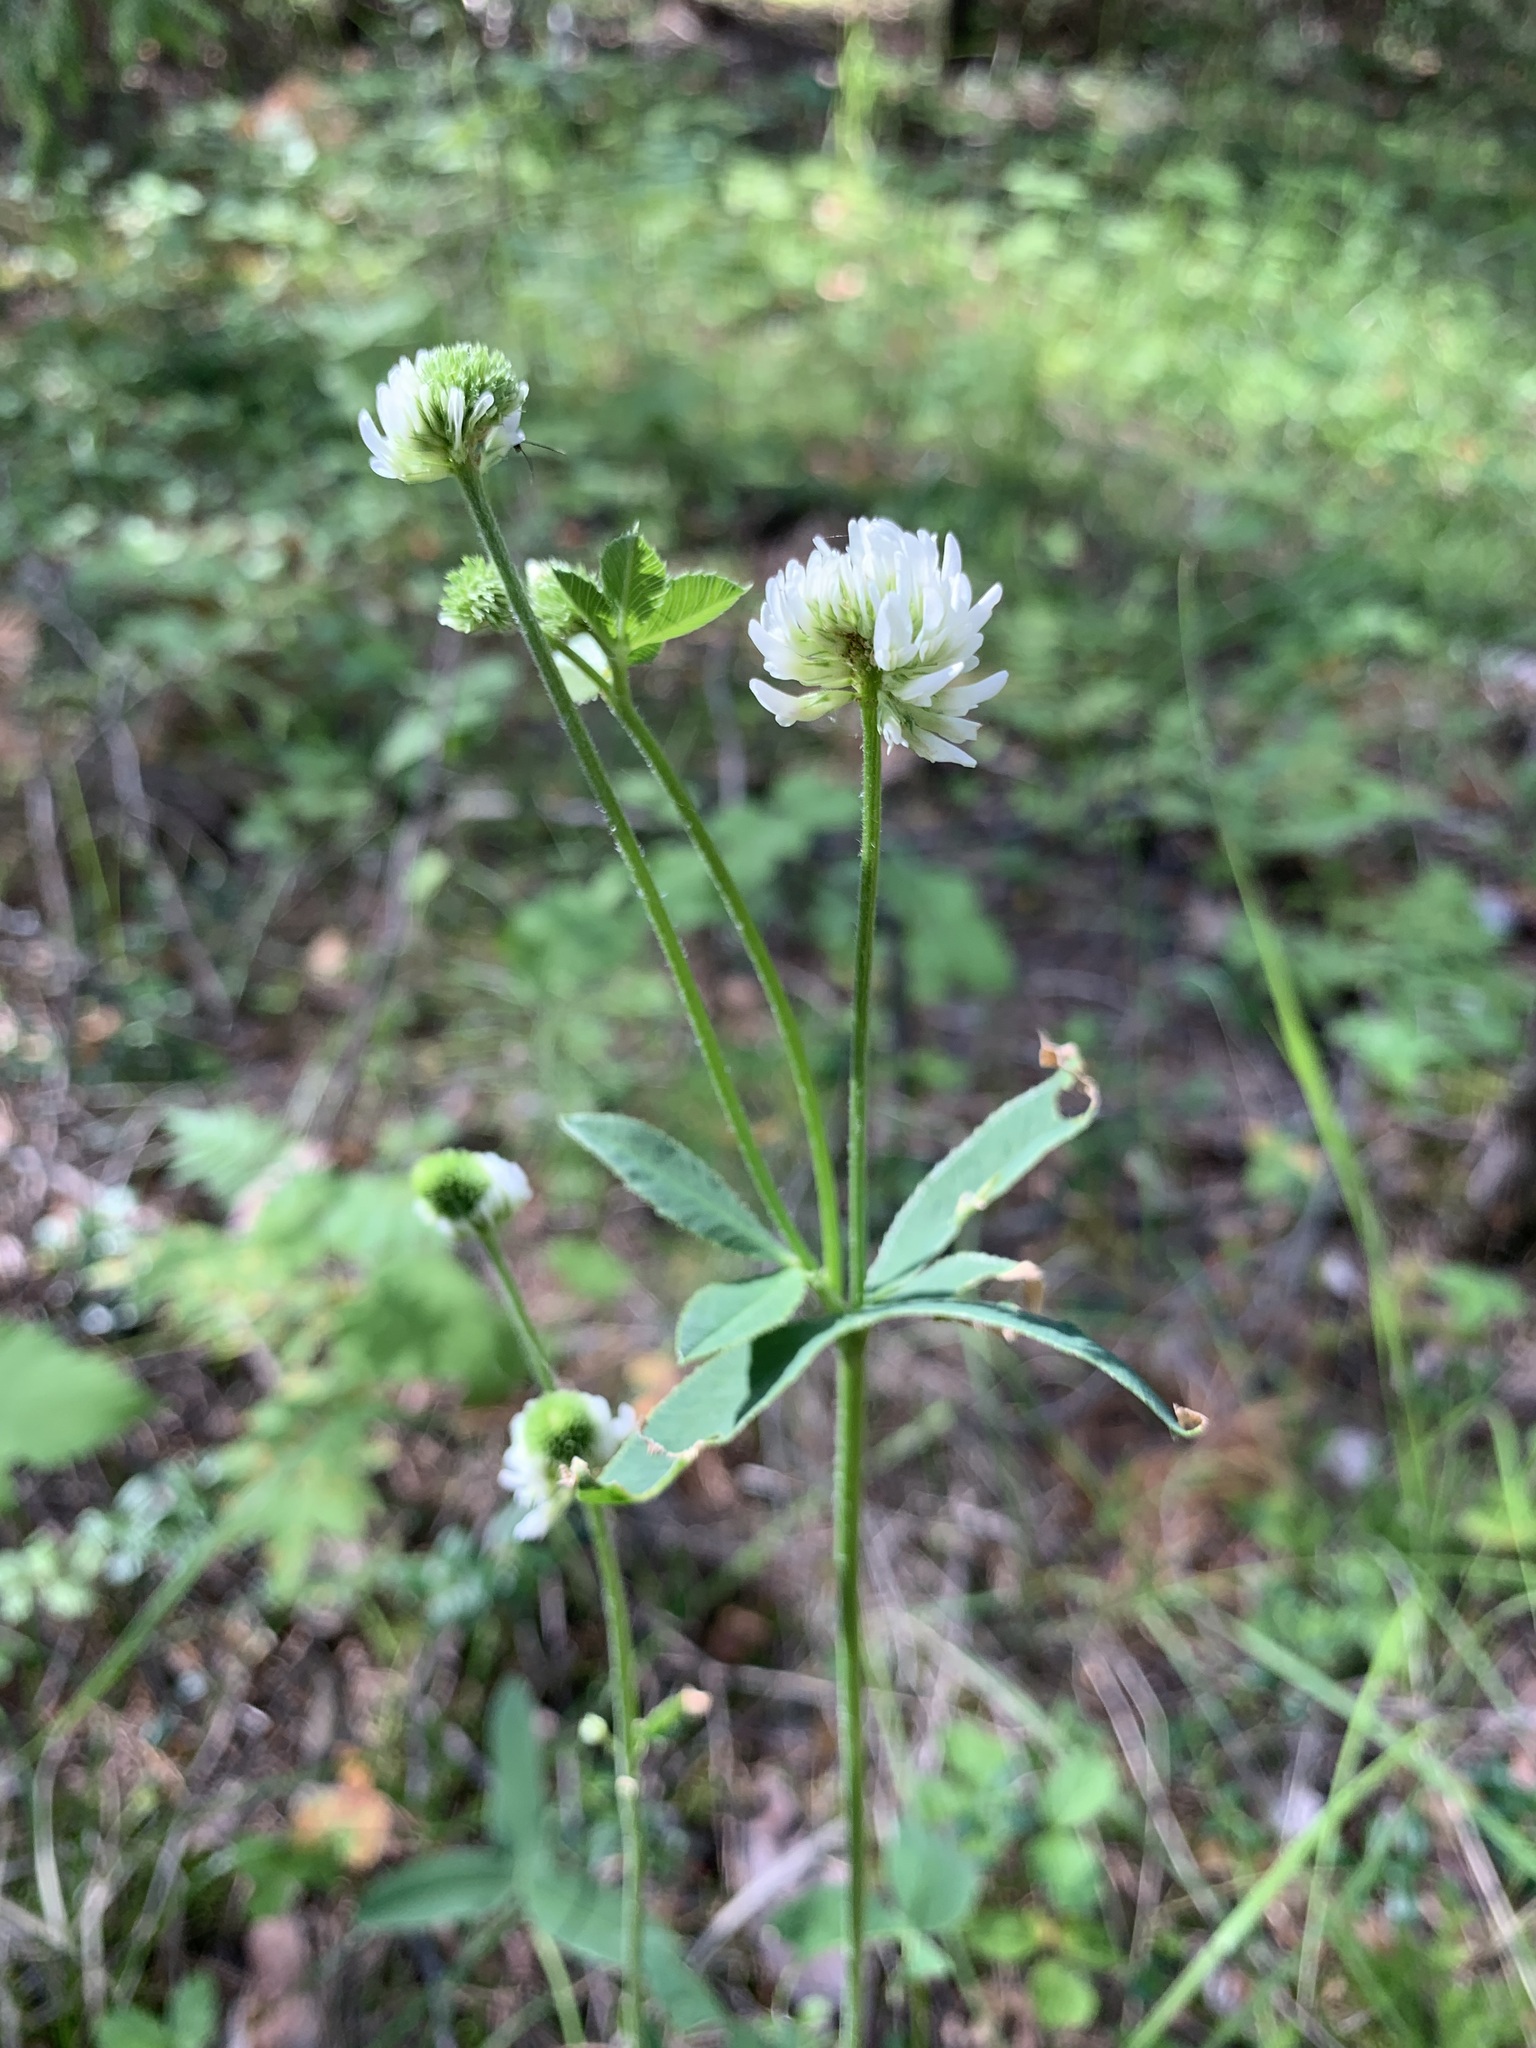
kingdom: Plantae
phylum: Tracheophyta
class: Magnoliopsida
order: Fabales
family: Fabaceae
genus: Trifolium
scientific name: Trifolium montanum
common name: Mountain clover
